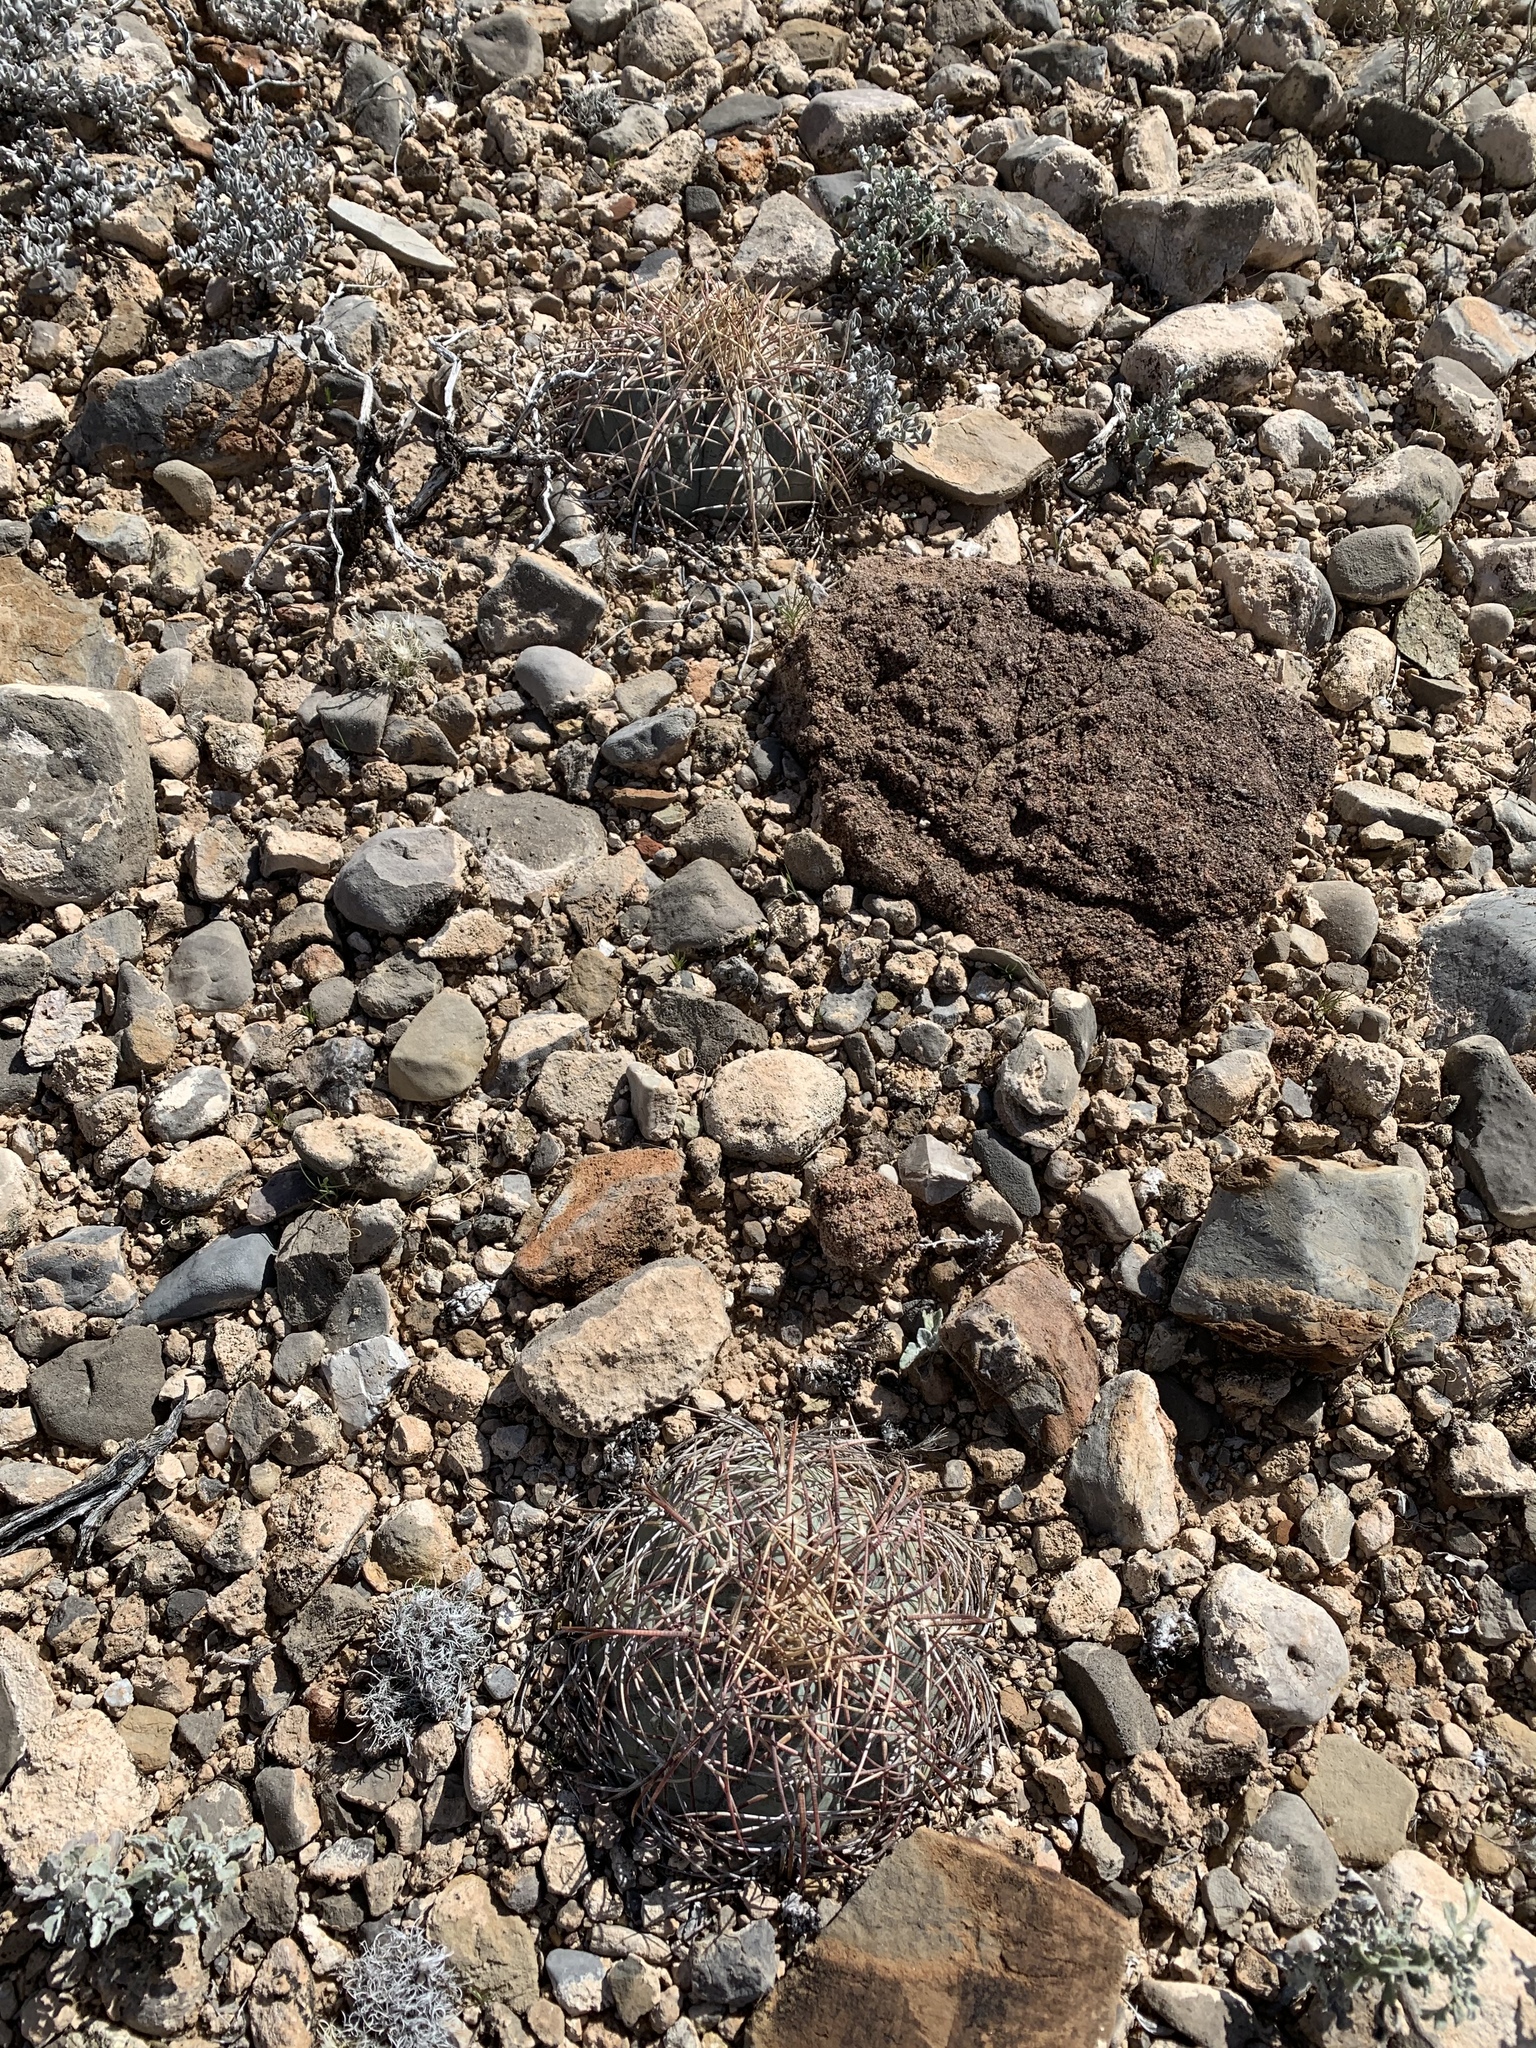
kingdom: Plantae
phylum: Tracheophyta
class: Magnoliopsida
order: Caryophyllales
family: Cactaceae
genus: Echinocactus
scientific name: Echinocactus horizonthalonius
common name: Devilshead
